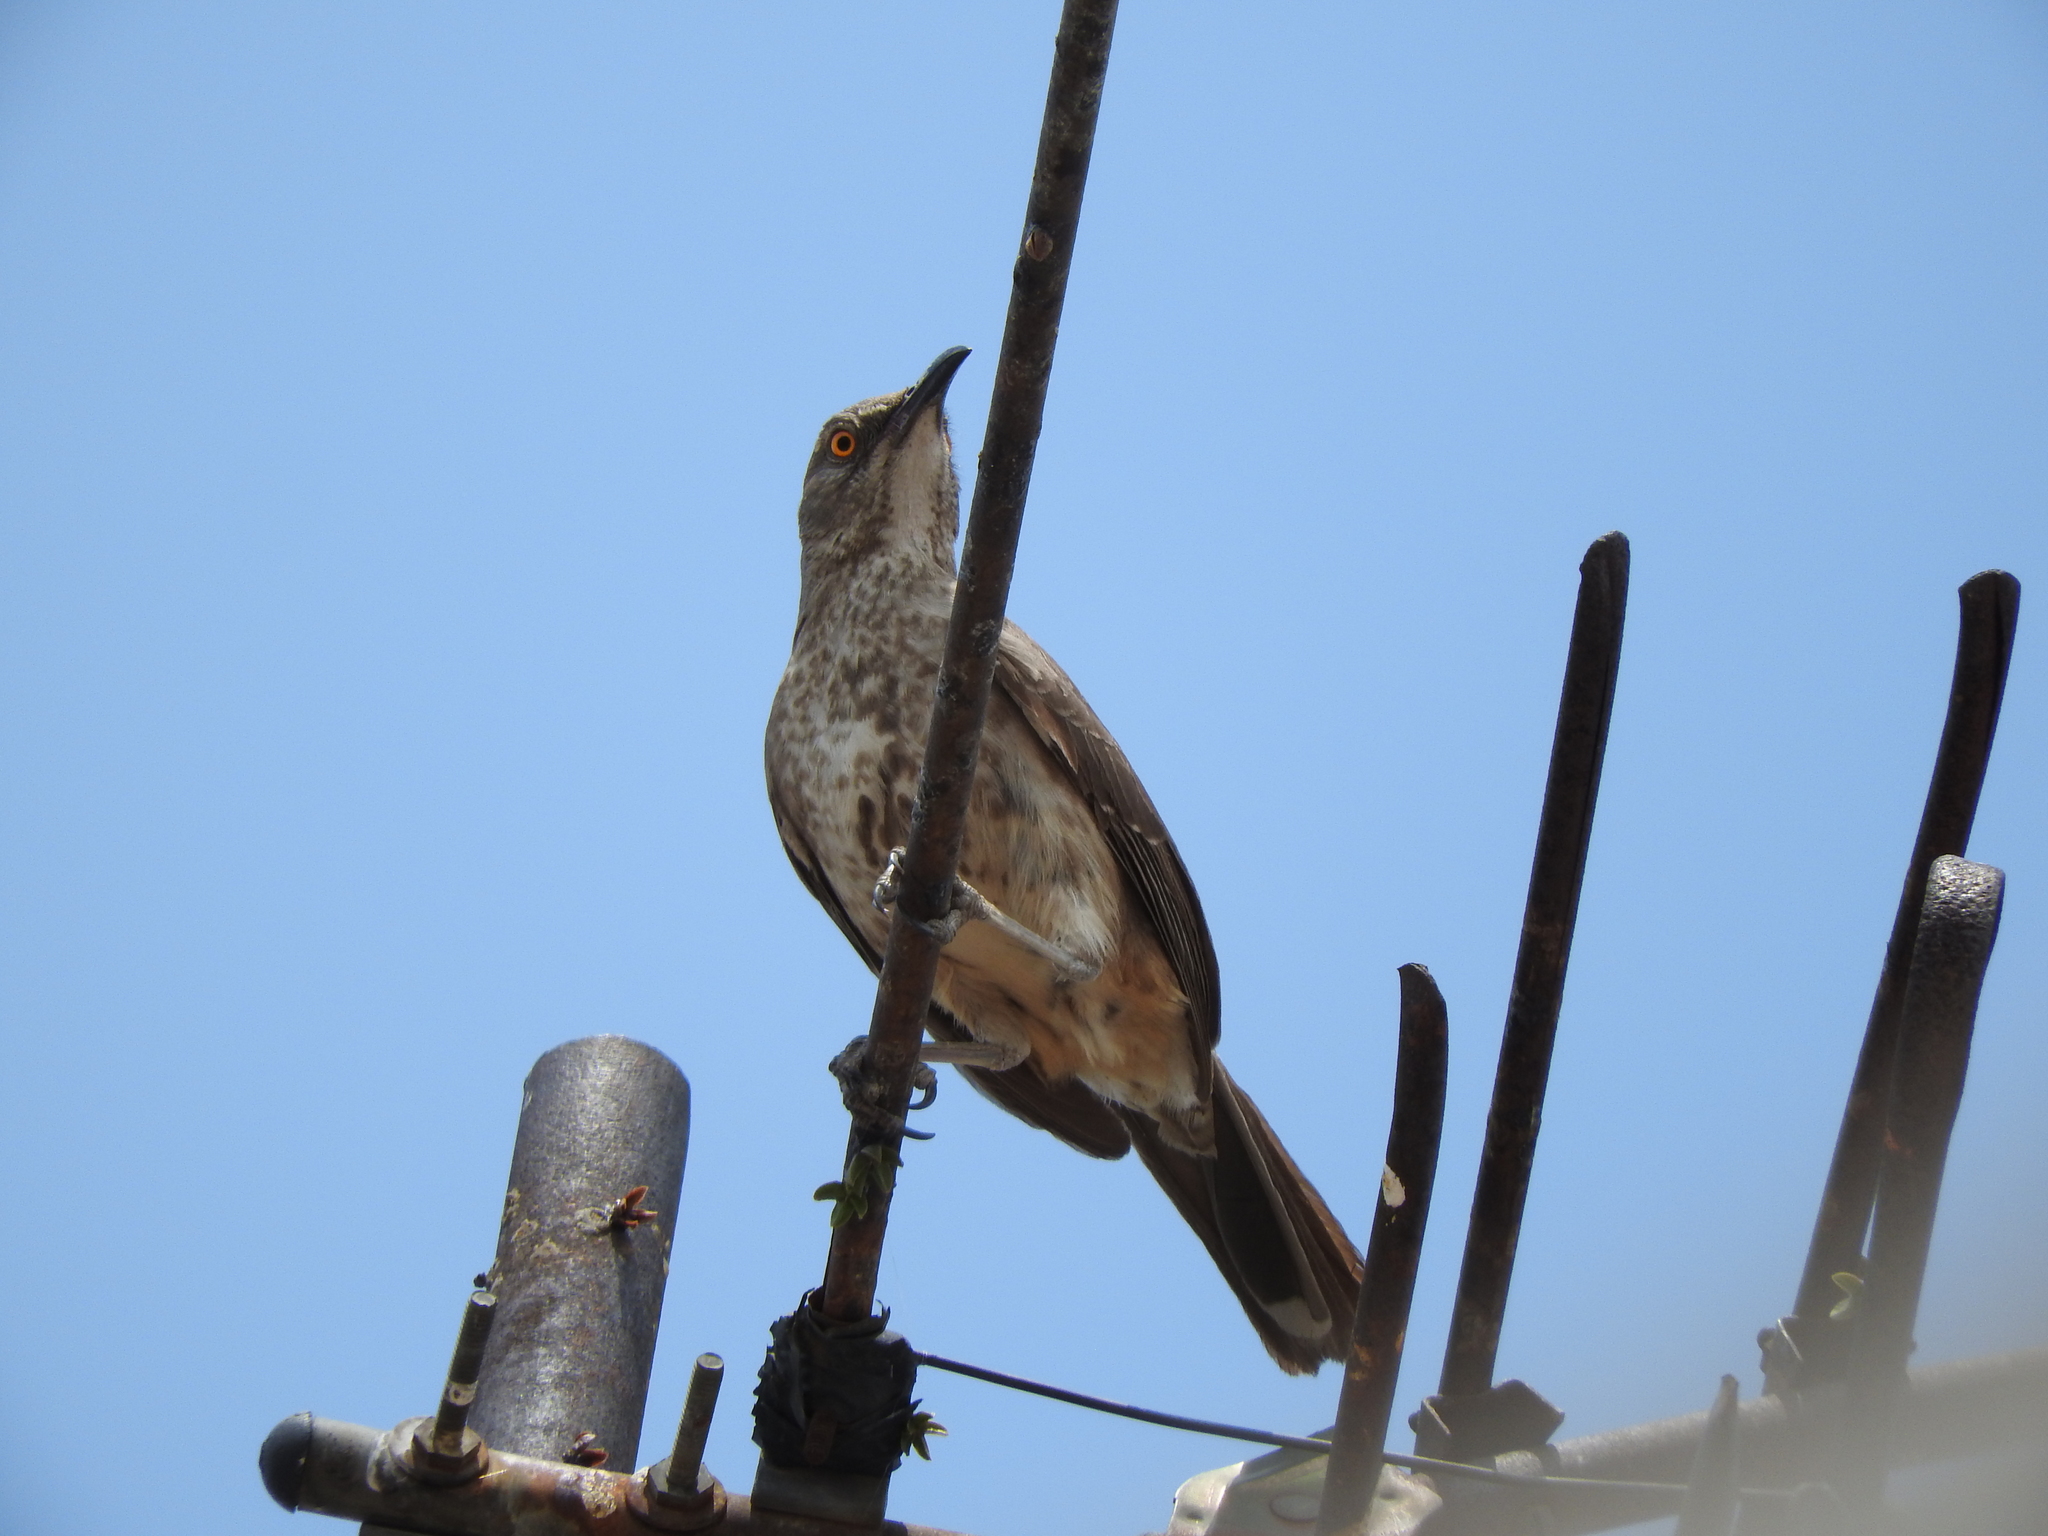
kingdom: Animalia
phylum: Chordata
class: Aves
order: Passeriformes
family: Mimidae
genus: Toxostoma
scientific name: Toxostoma curvirostre
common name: Curve-billed thrasher
